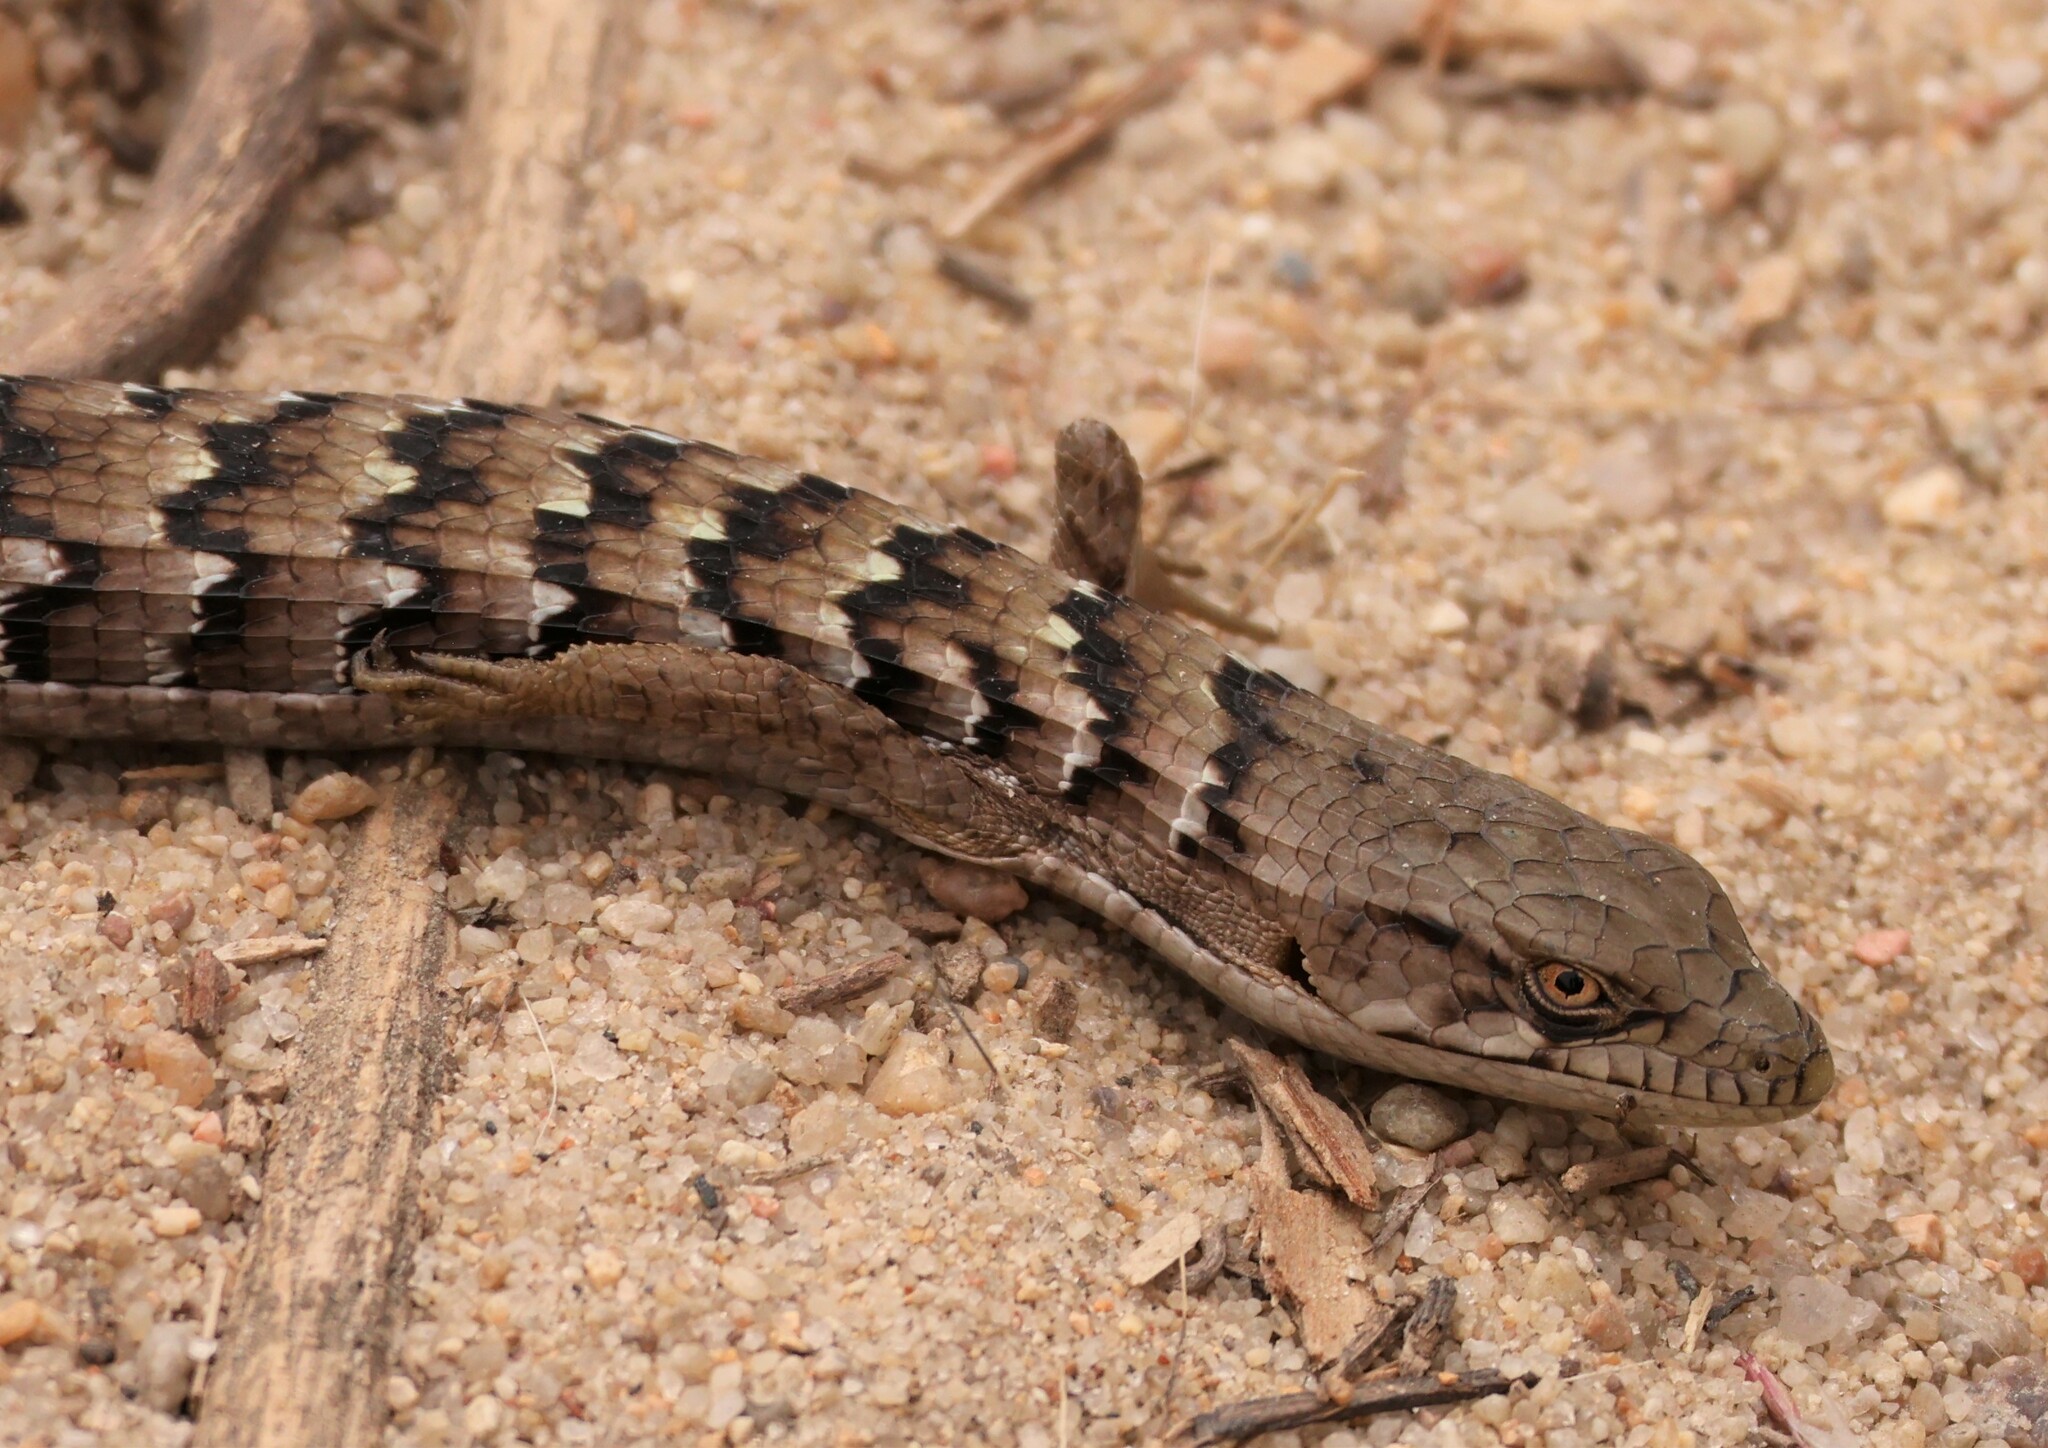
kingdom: Animalia
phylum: Chordata
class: Squamata
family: Anguidae
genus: Elgaria
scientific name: Elgaria multicarinata
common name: Southern alligator lizard
